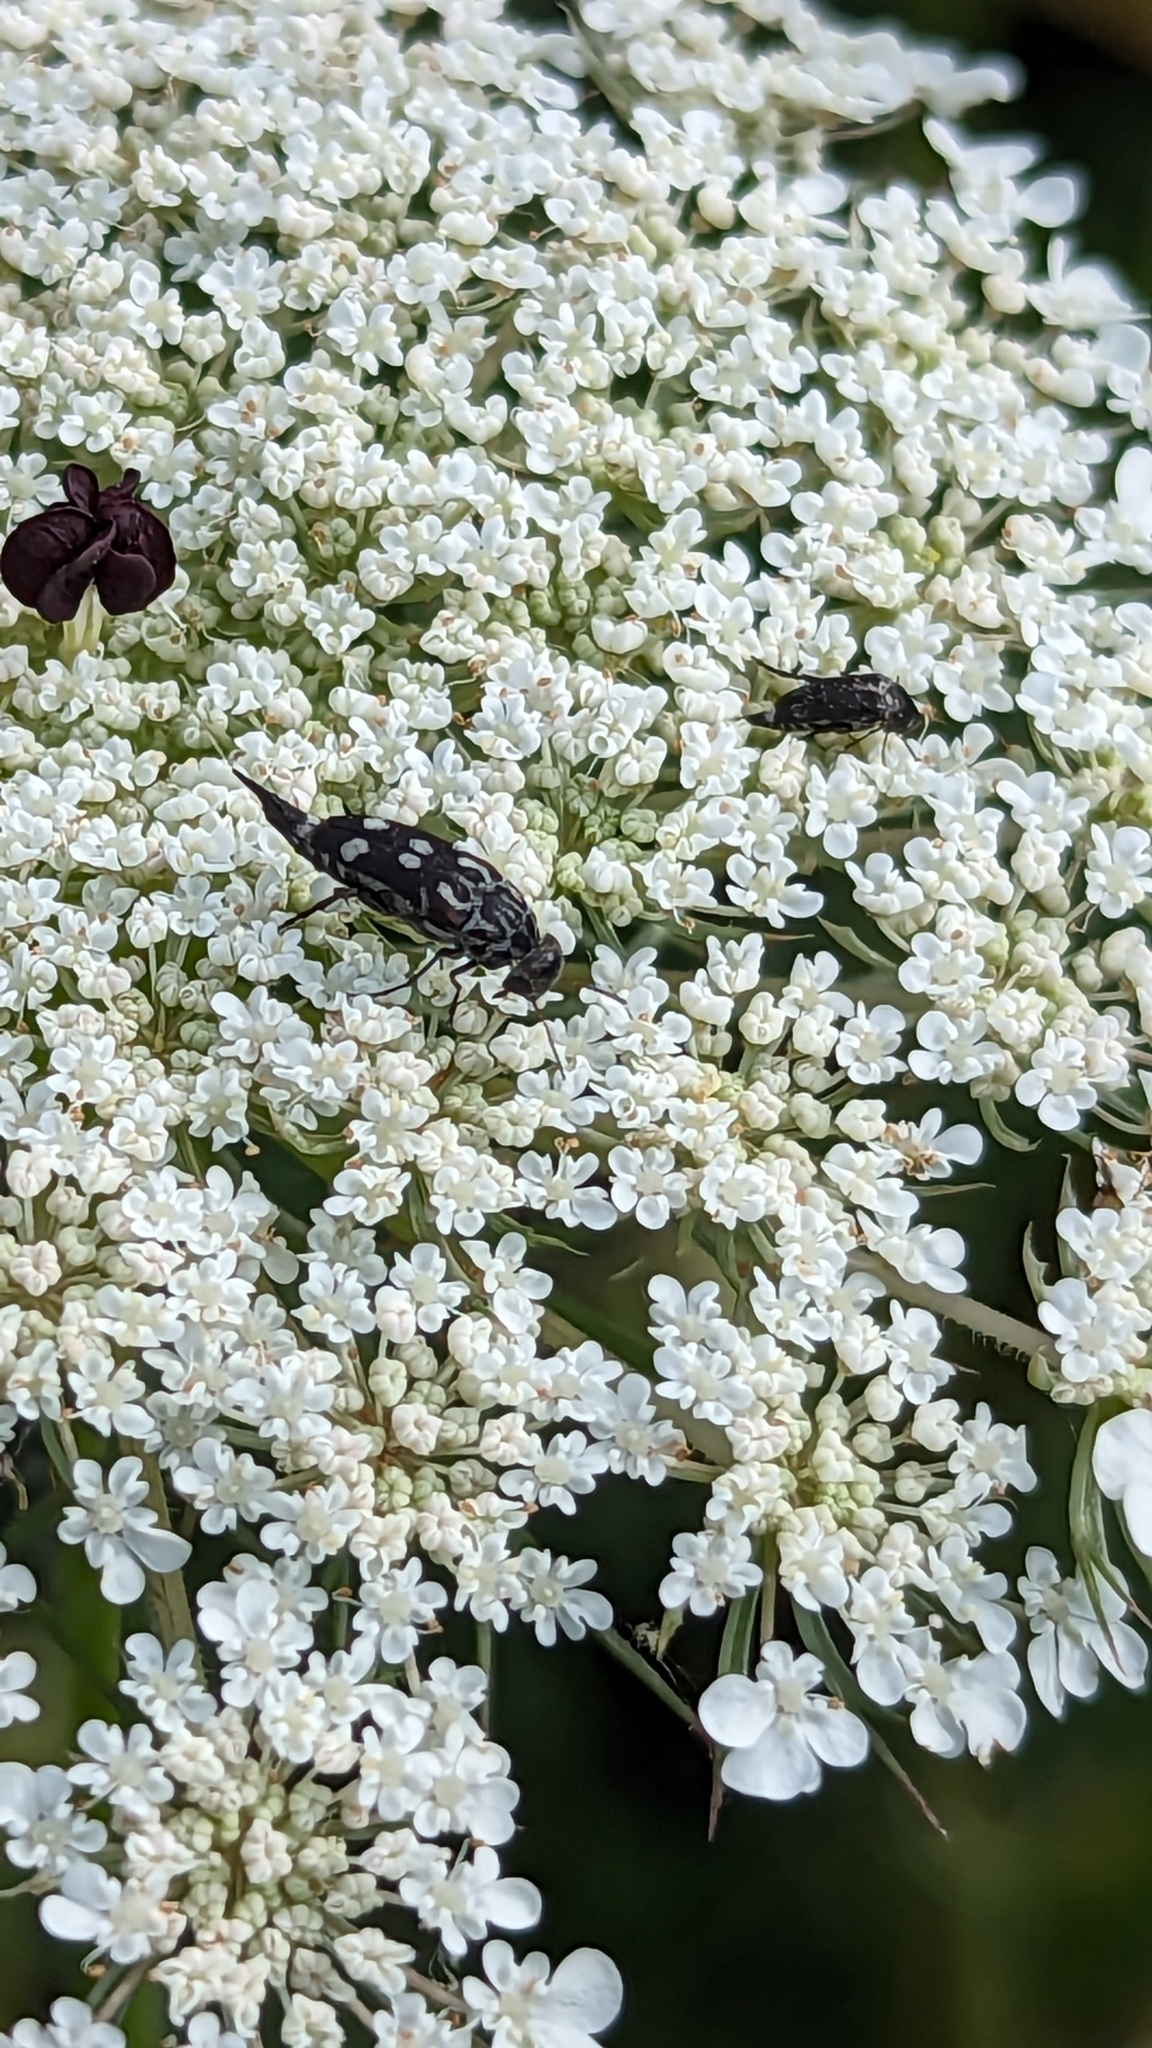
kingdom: Animalia
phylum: Arthropoda
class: Insecta
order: Coleoptera
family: Mordellidae
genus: Hoshihananomia
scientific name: Hoshihananomia octopunctata
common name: Eight-spotted tumbling flower beetle
